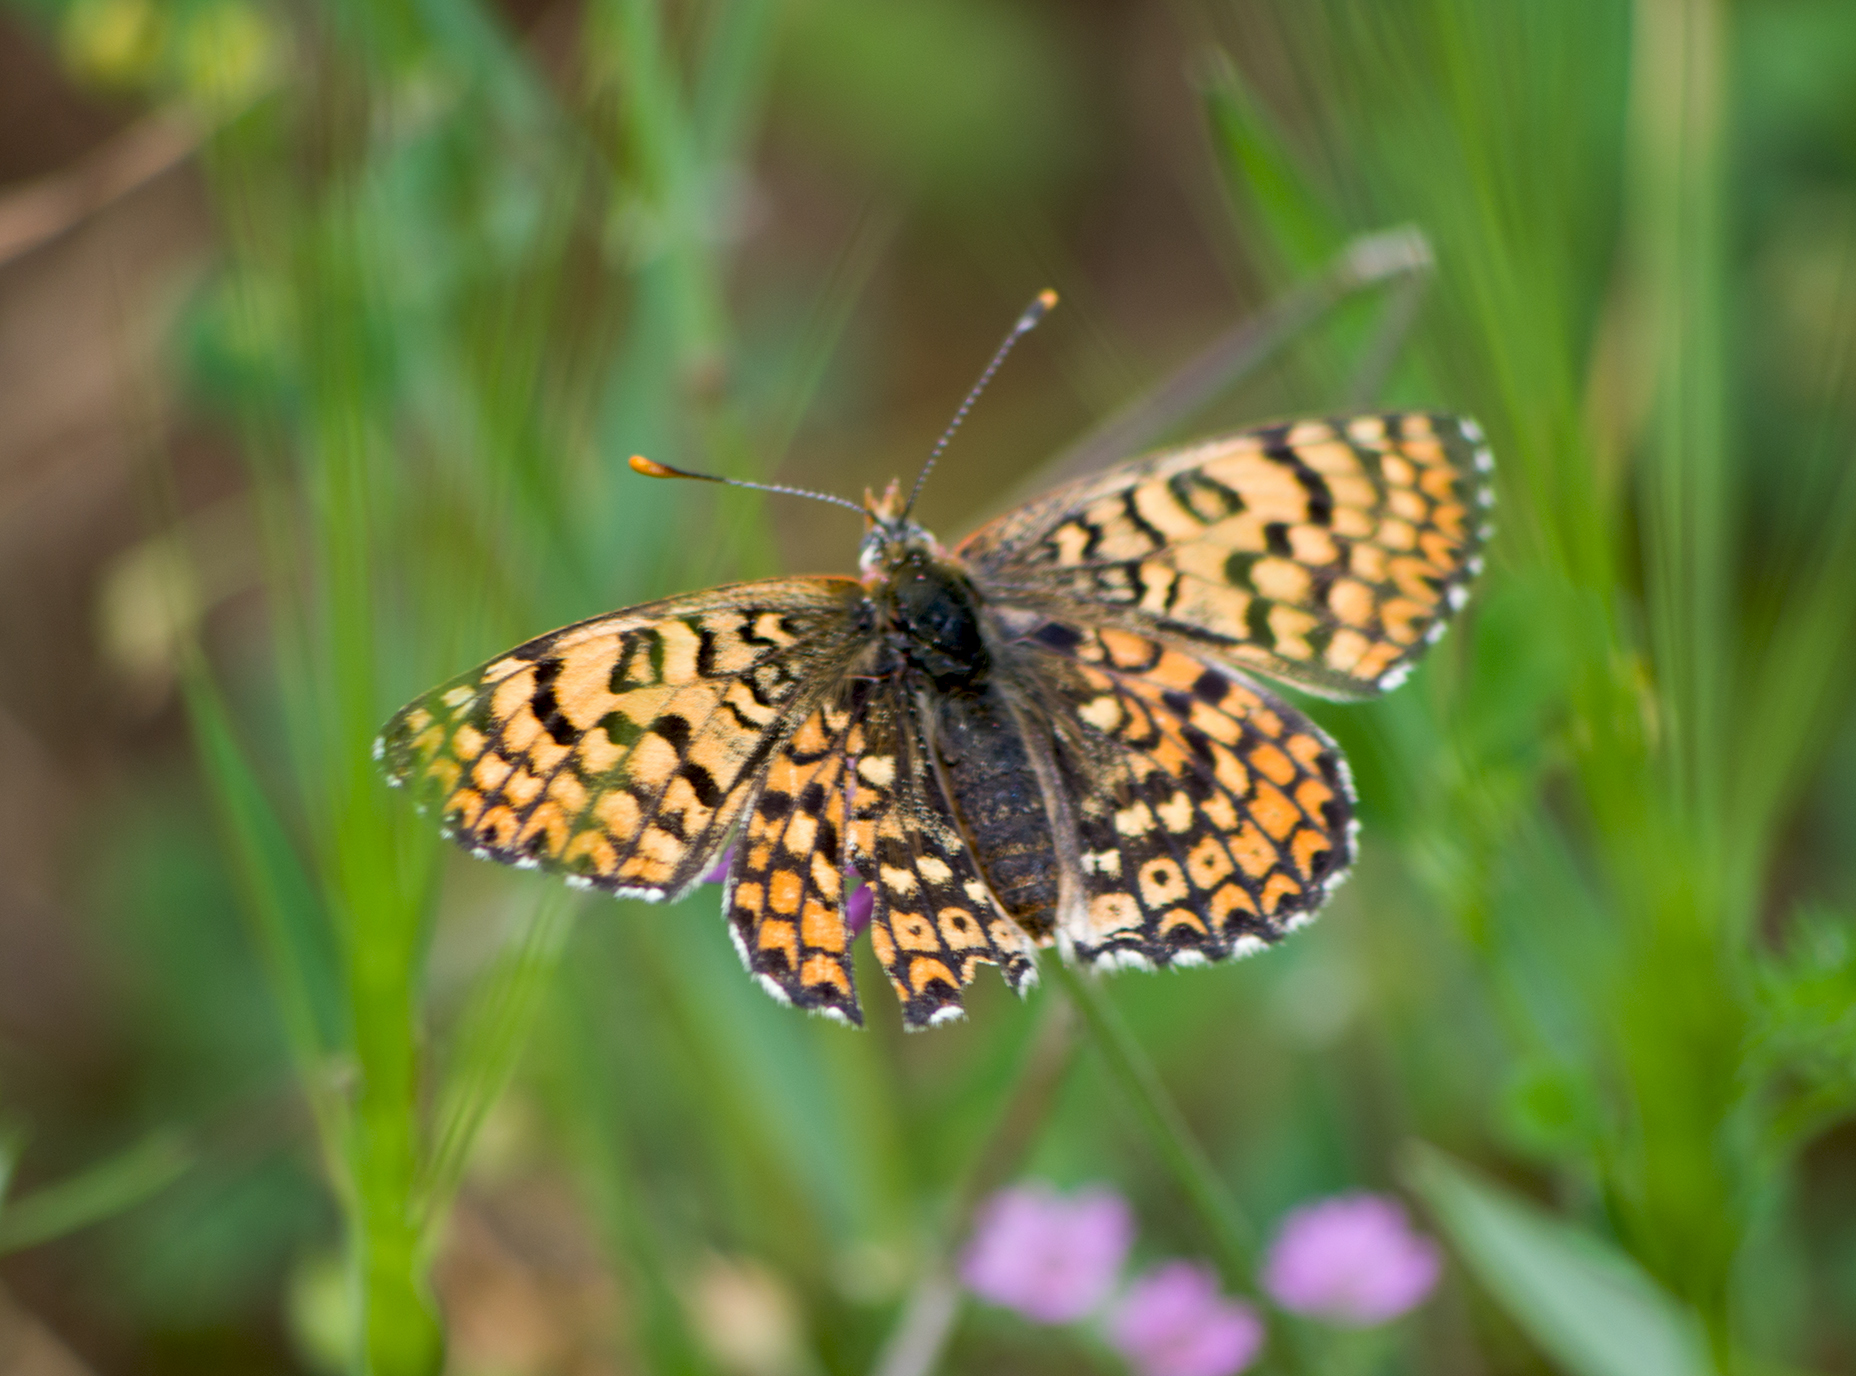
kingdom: Animalia
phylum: Arthropoda
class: Insecta
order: Lepidoptera
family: Nymphalidae
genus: Melitaea
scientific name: Melitaea cinxia
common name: Glanville fritillary
